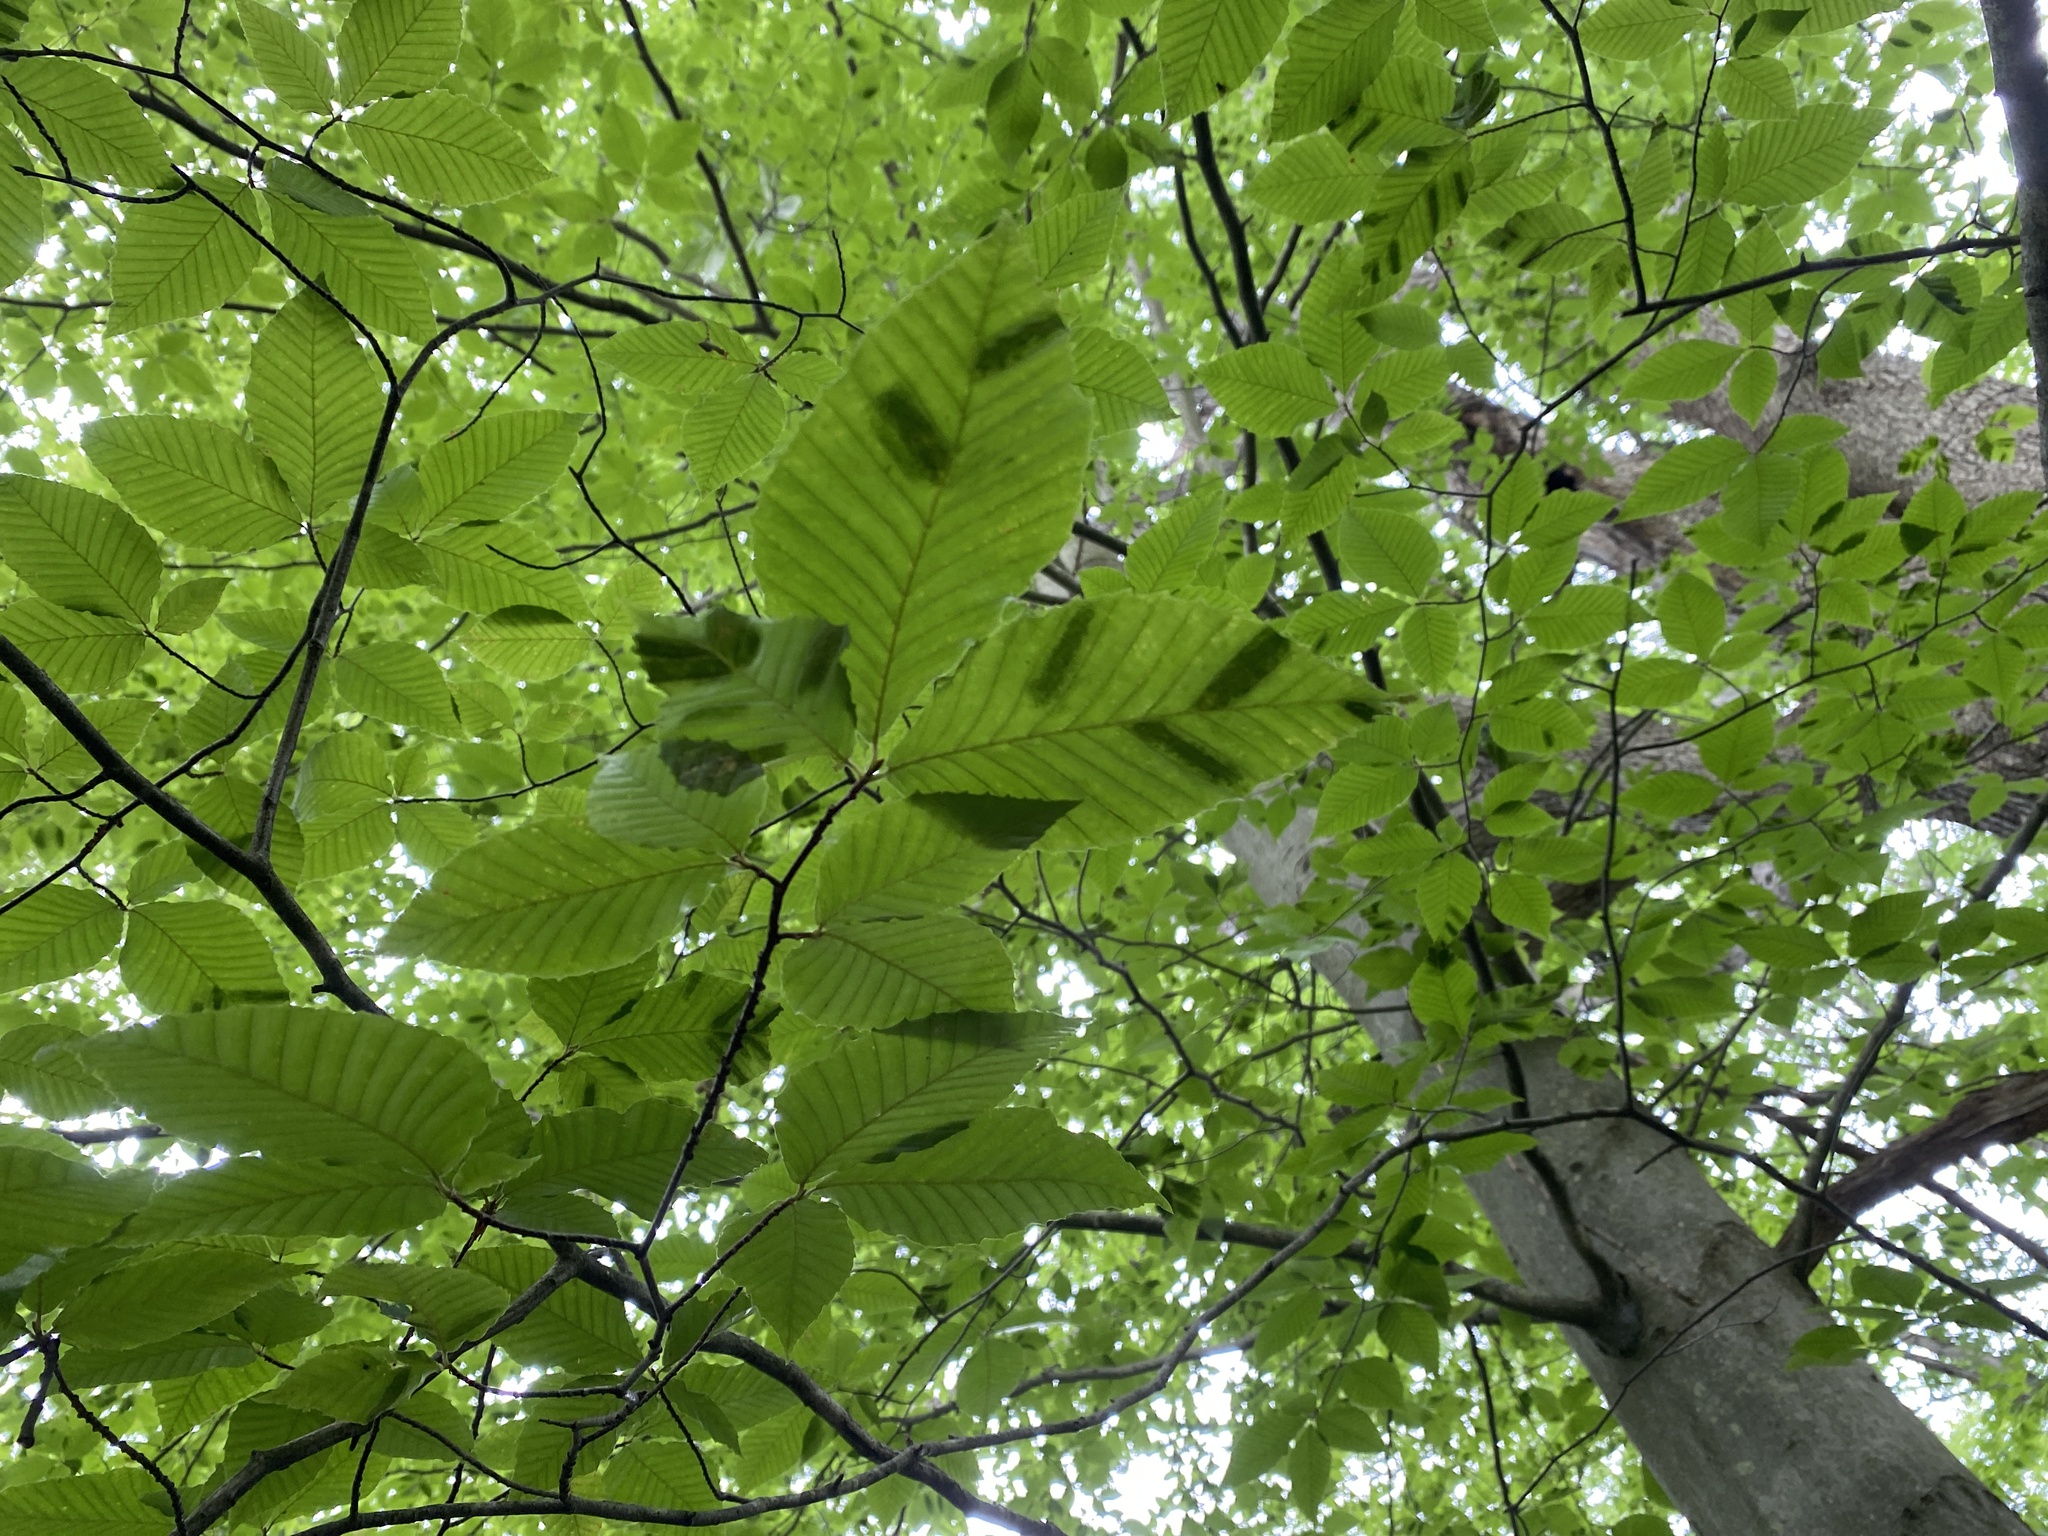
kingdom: Animalia
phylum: Nematoda
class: Chromadorea
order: Rhabditida
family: Anguinidae
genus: Litylenchus
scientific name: Litylenchus crenatae
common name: Beech leaf disease
